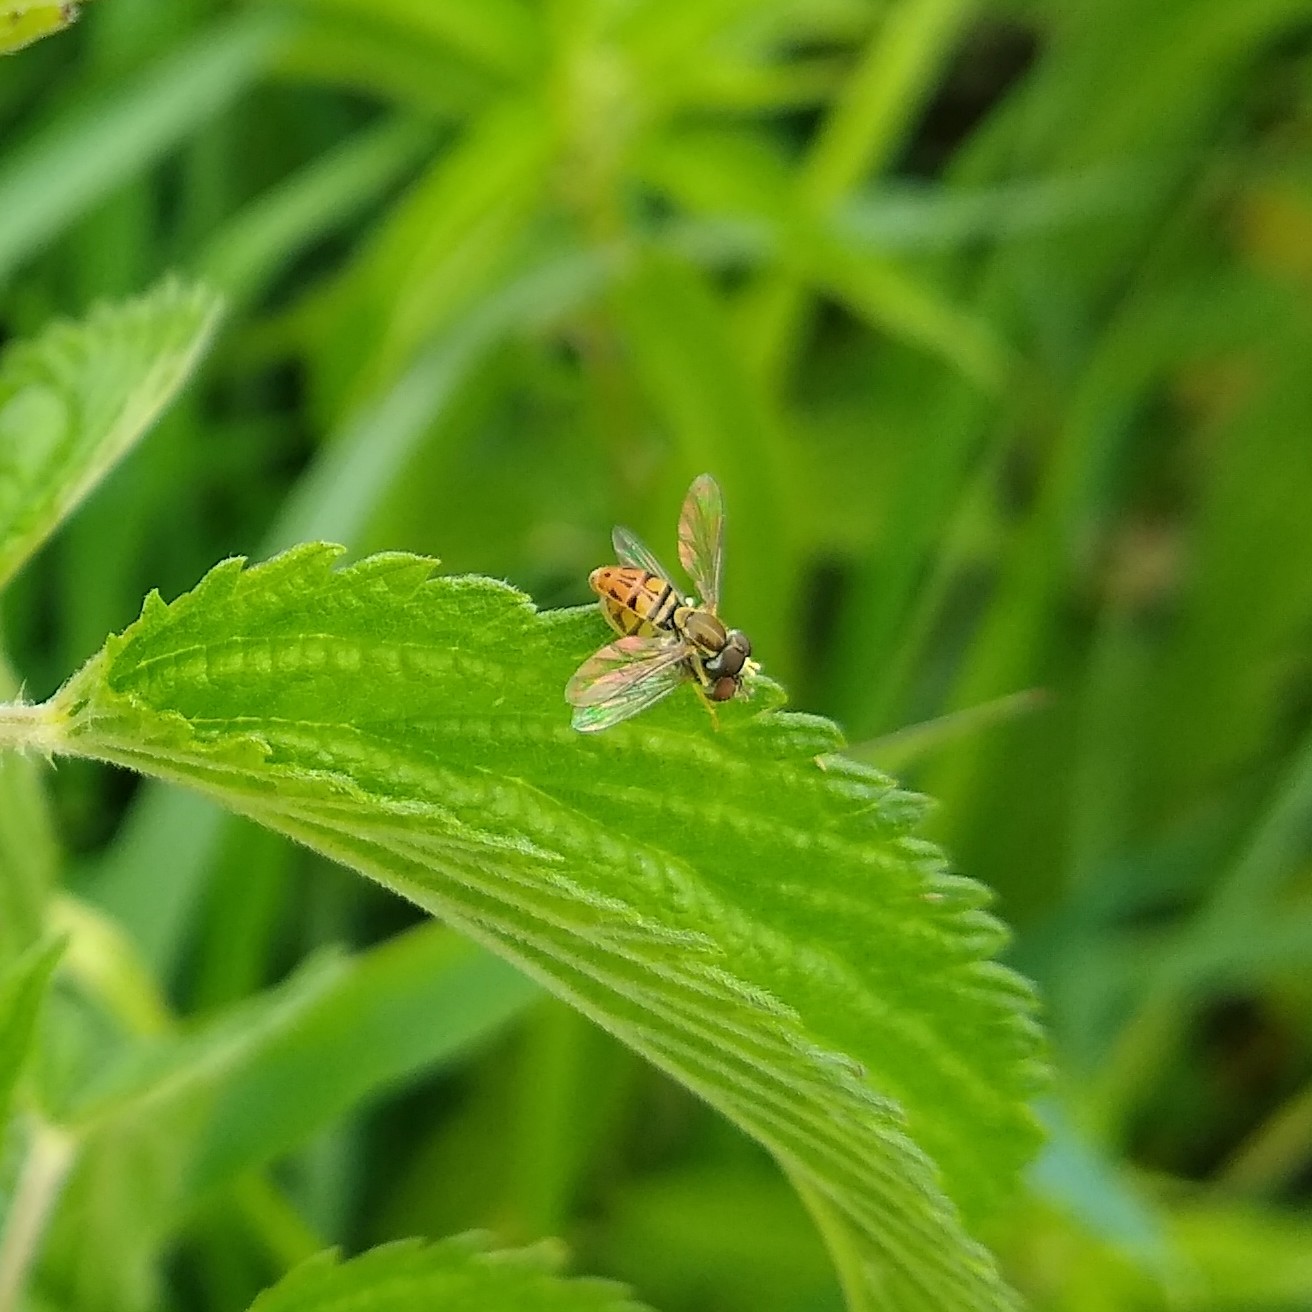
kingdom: Animalia
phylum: Arthropoda
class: Insecta
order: Diptera
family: Syrphidae
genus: Toxomerus
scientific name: Toxomerus marginatus
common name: Syrphid fly
